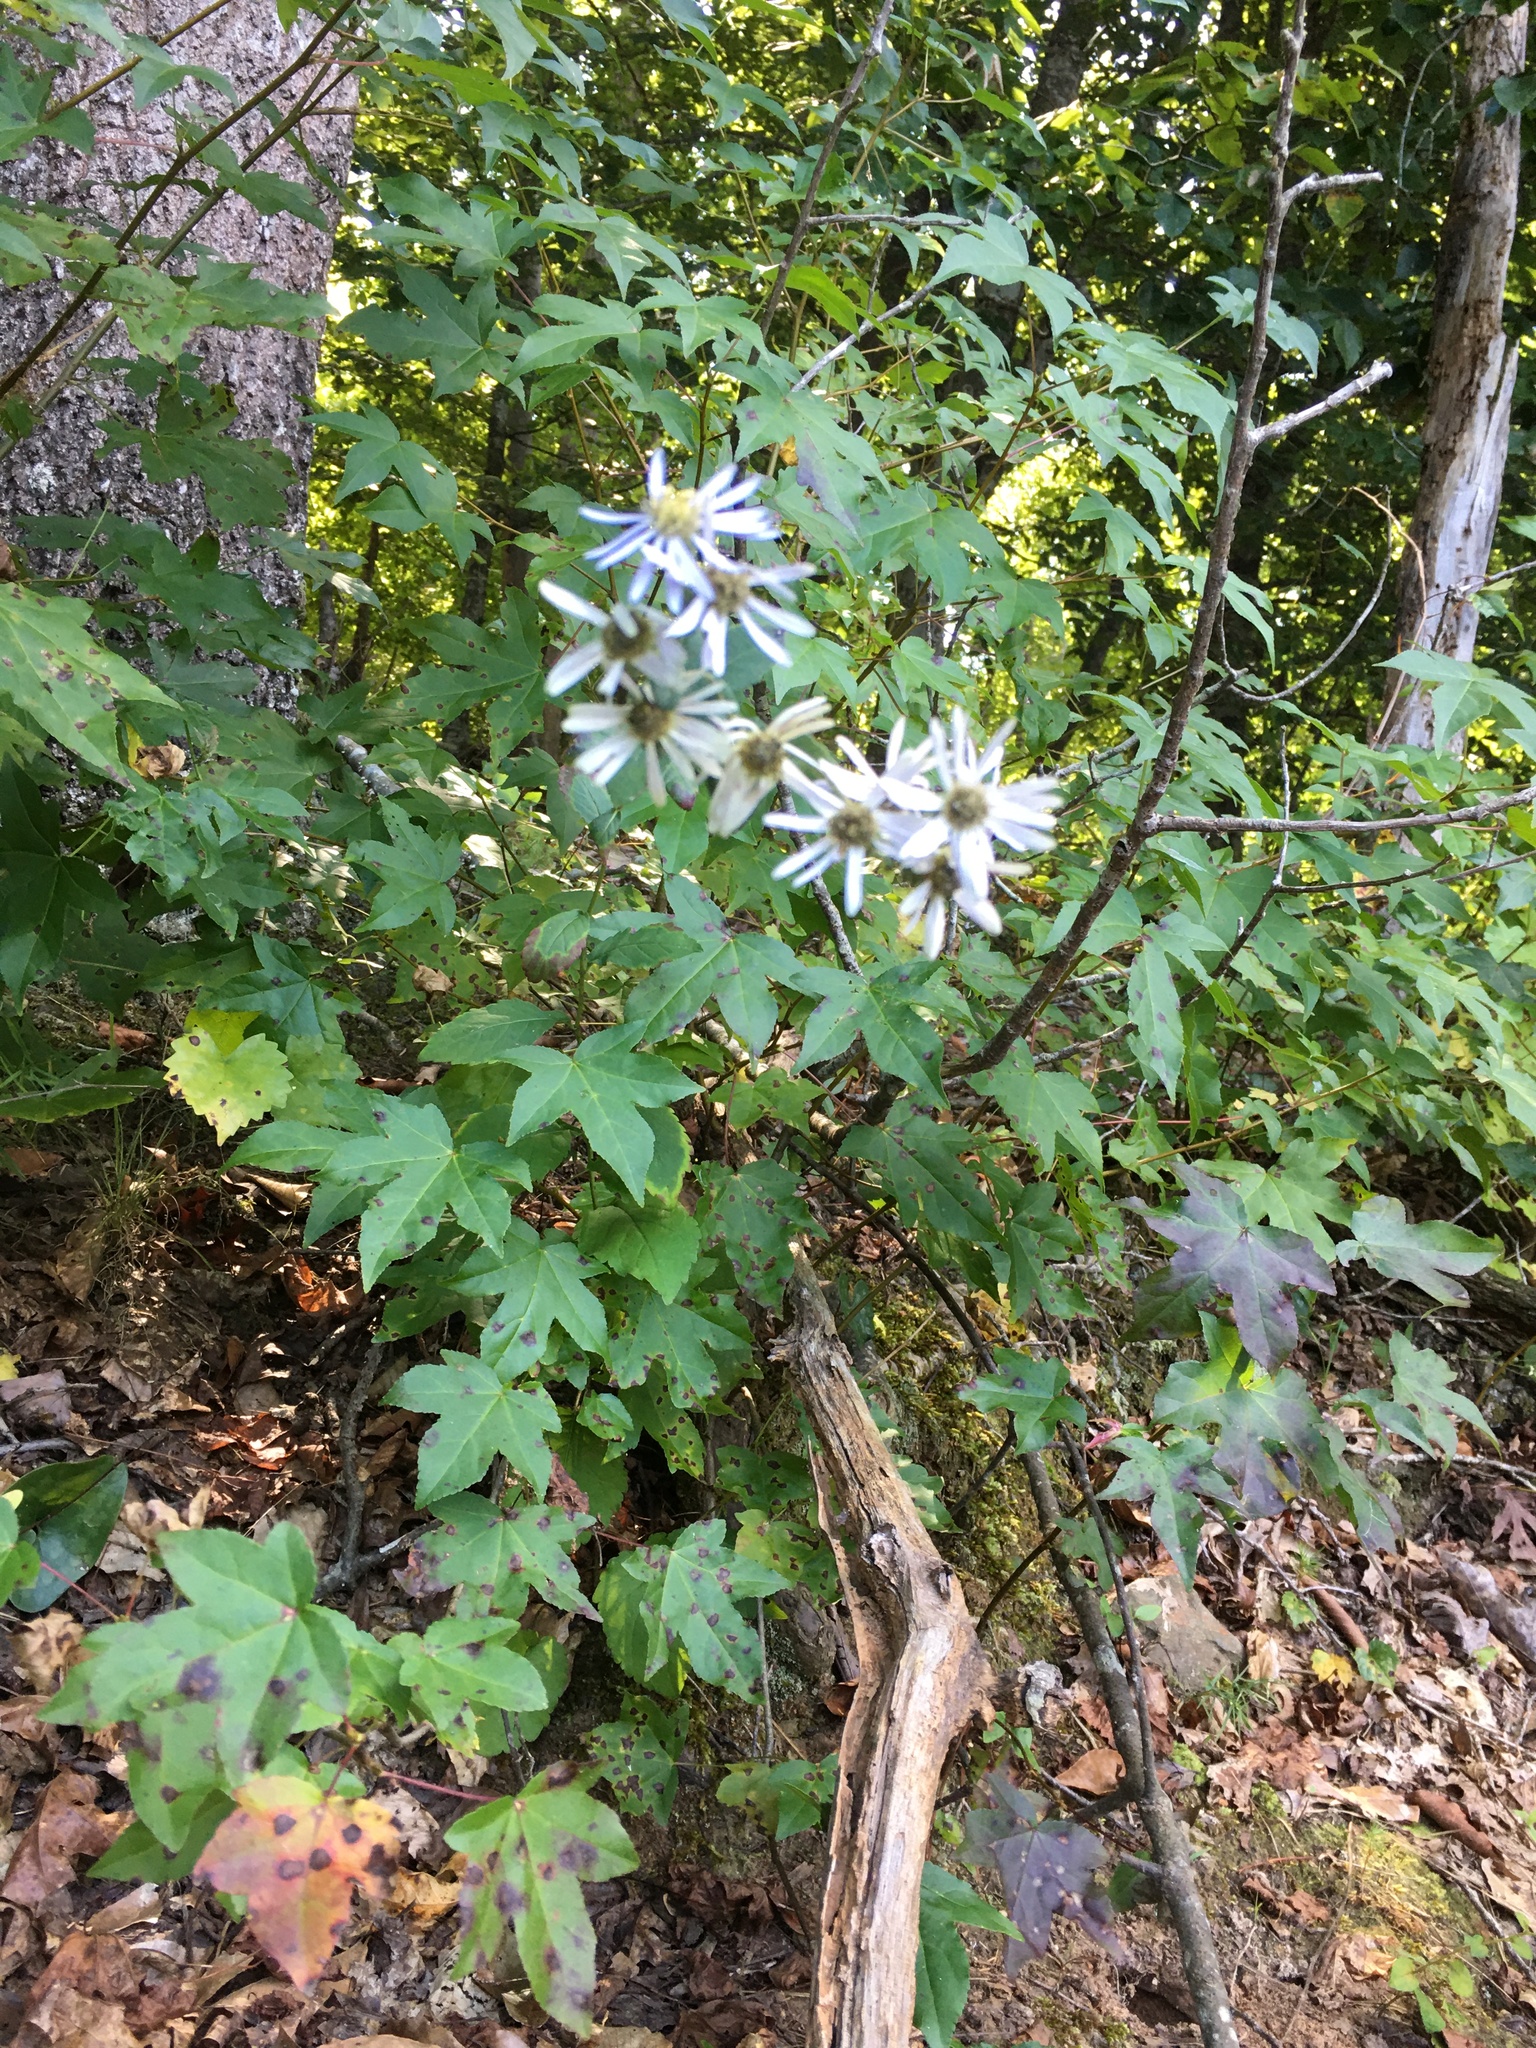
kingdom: Plantae
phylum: Tracheophyta
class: Magnoliopsida
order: Asterales
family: Asteraceae
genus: Eurybia
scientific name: Eurybia mirabilis
